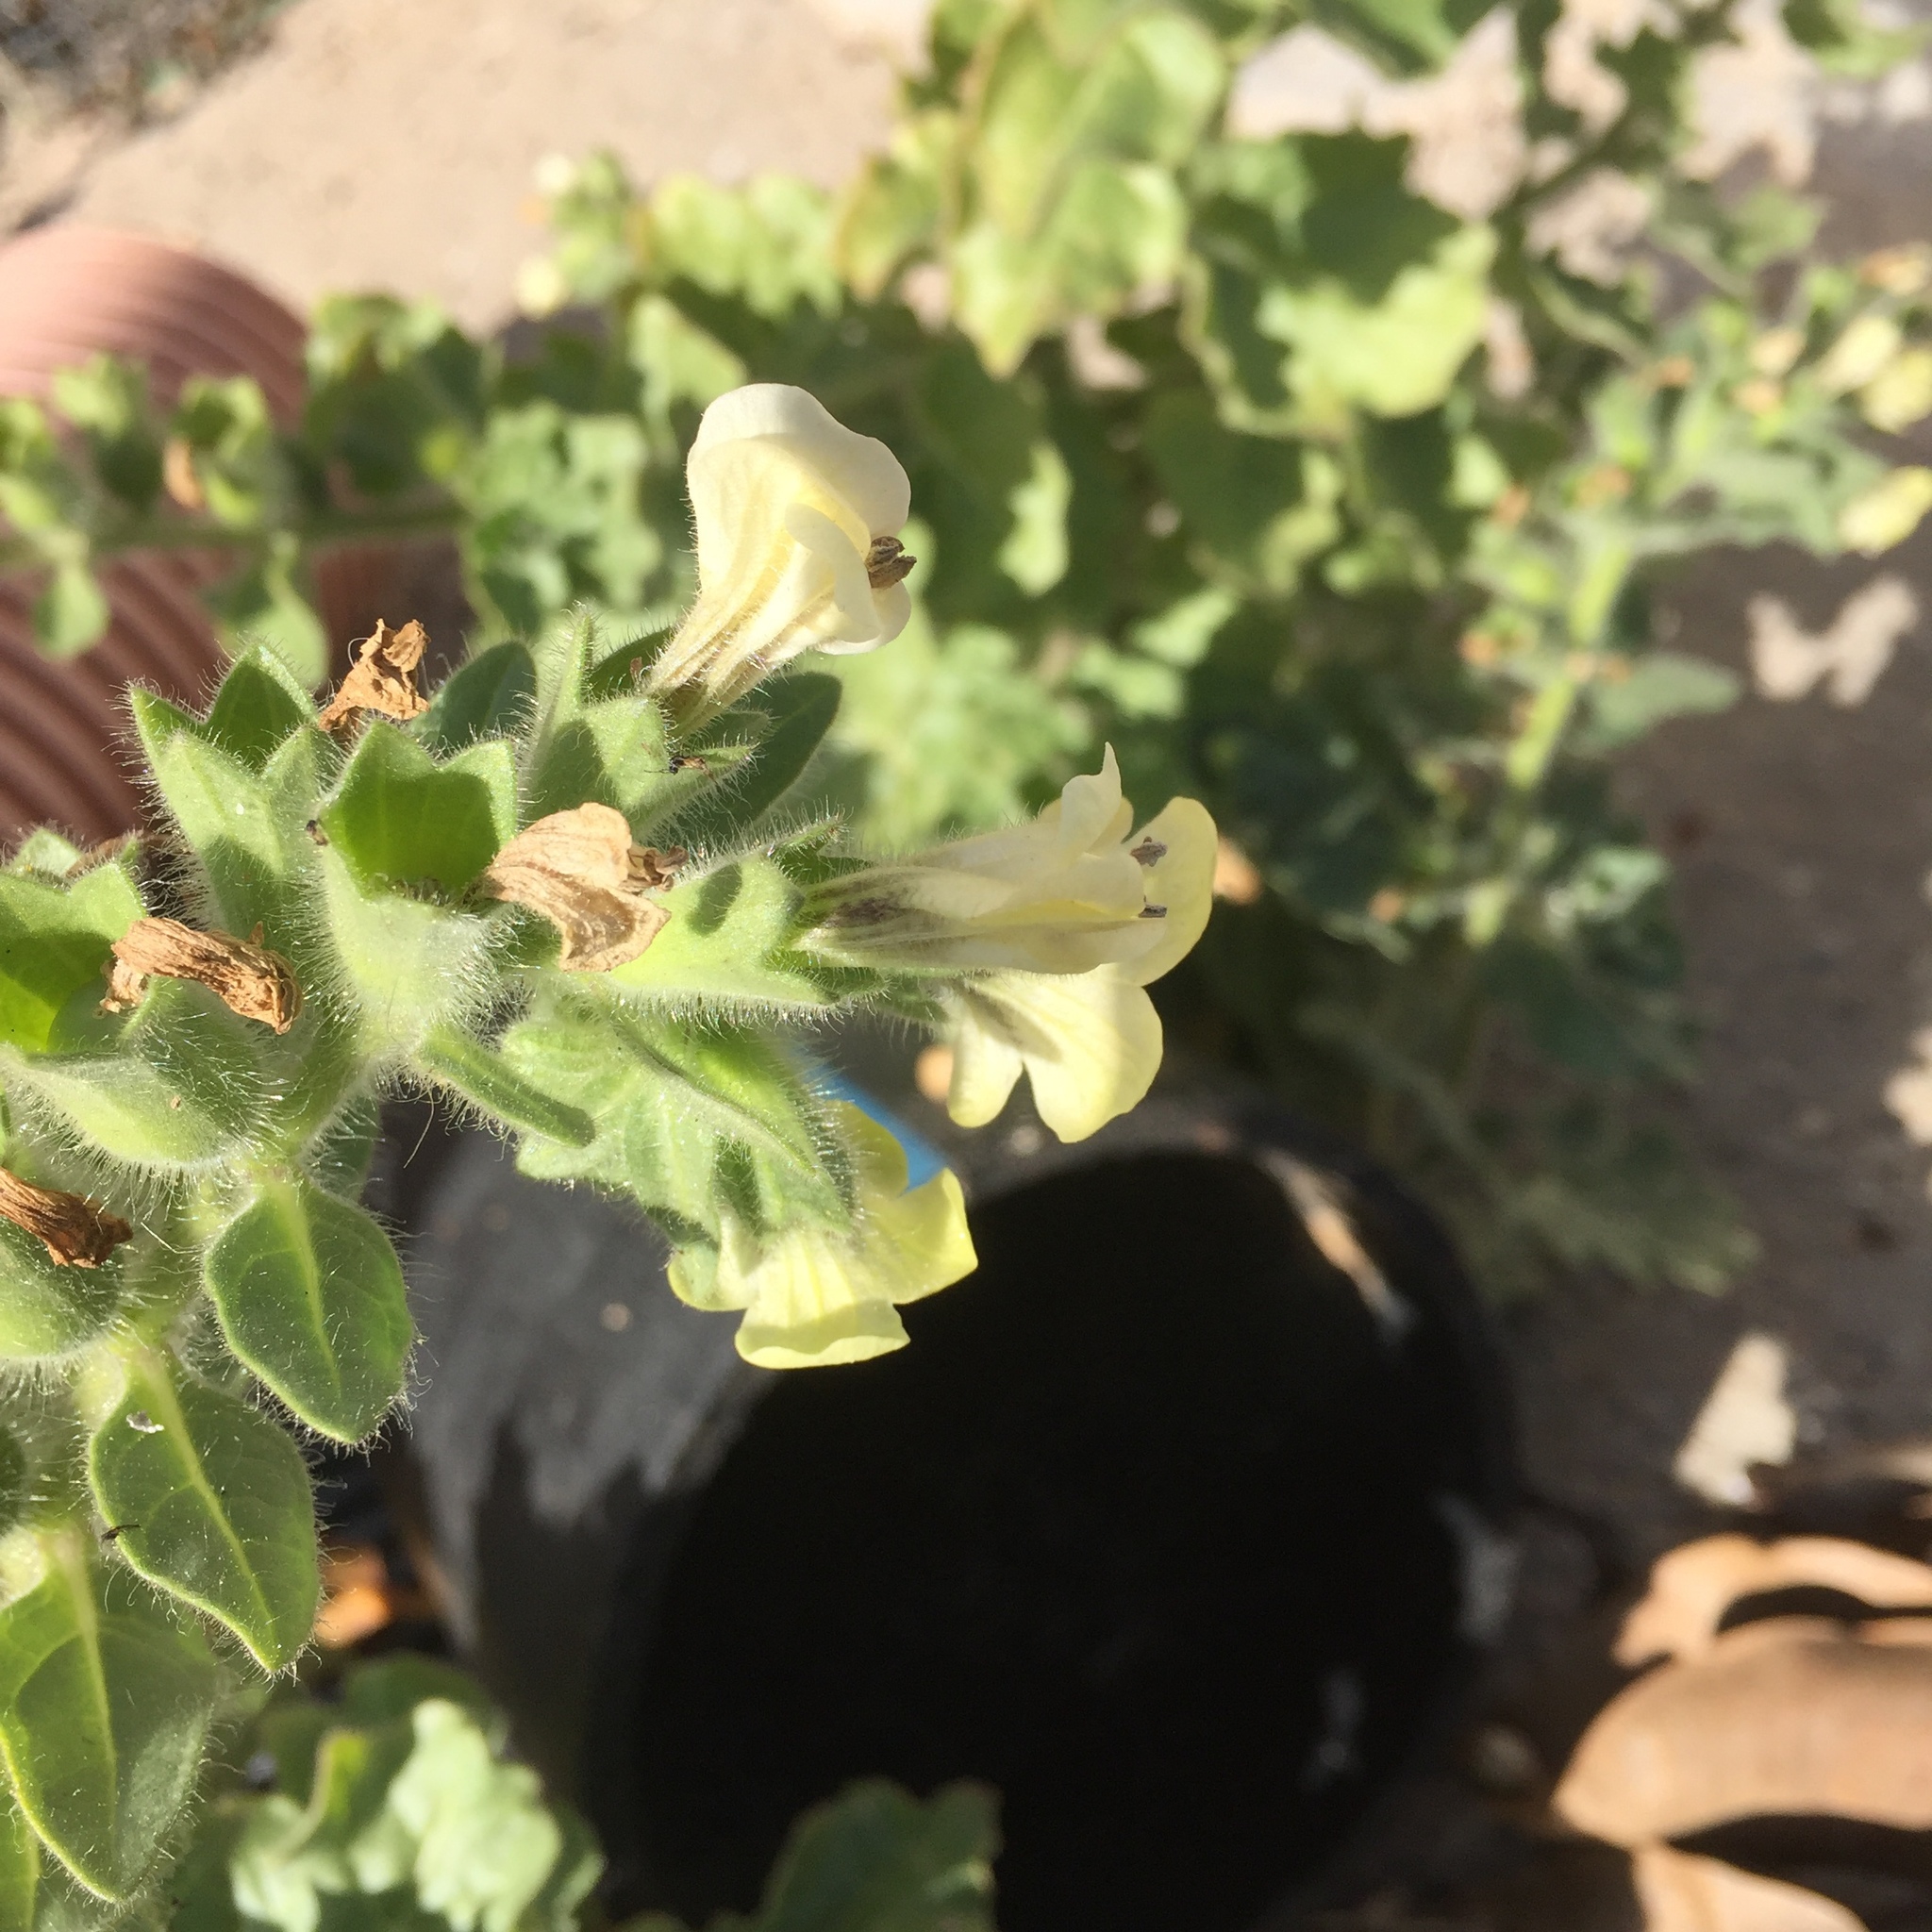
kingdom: Plantae
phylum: Tracheophyta
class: Magnoliopsida
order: Solanales
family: Solanaceae
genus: Hyoscyamus
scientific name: Hyoscyamus albus
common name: White henbane
